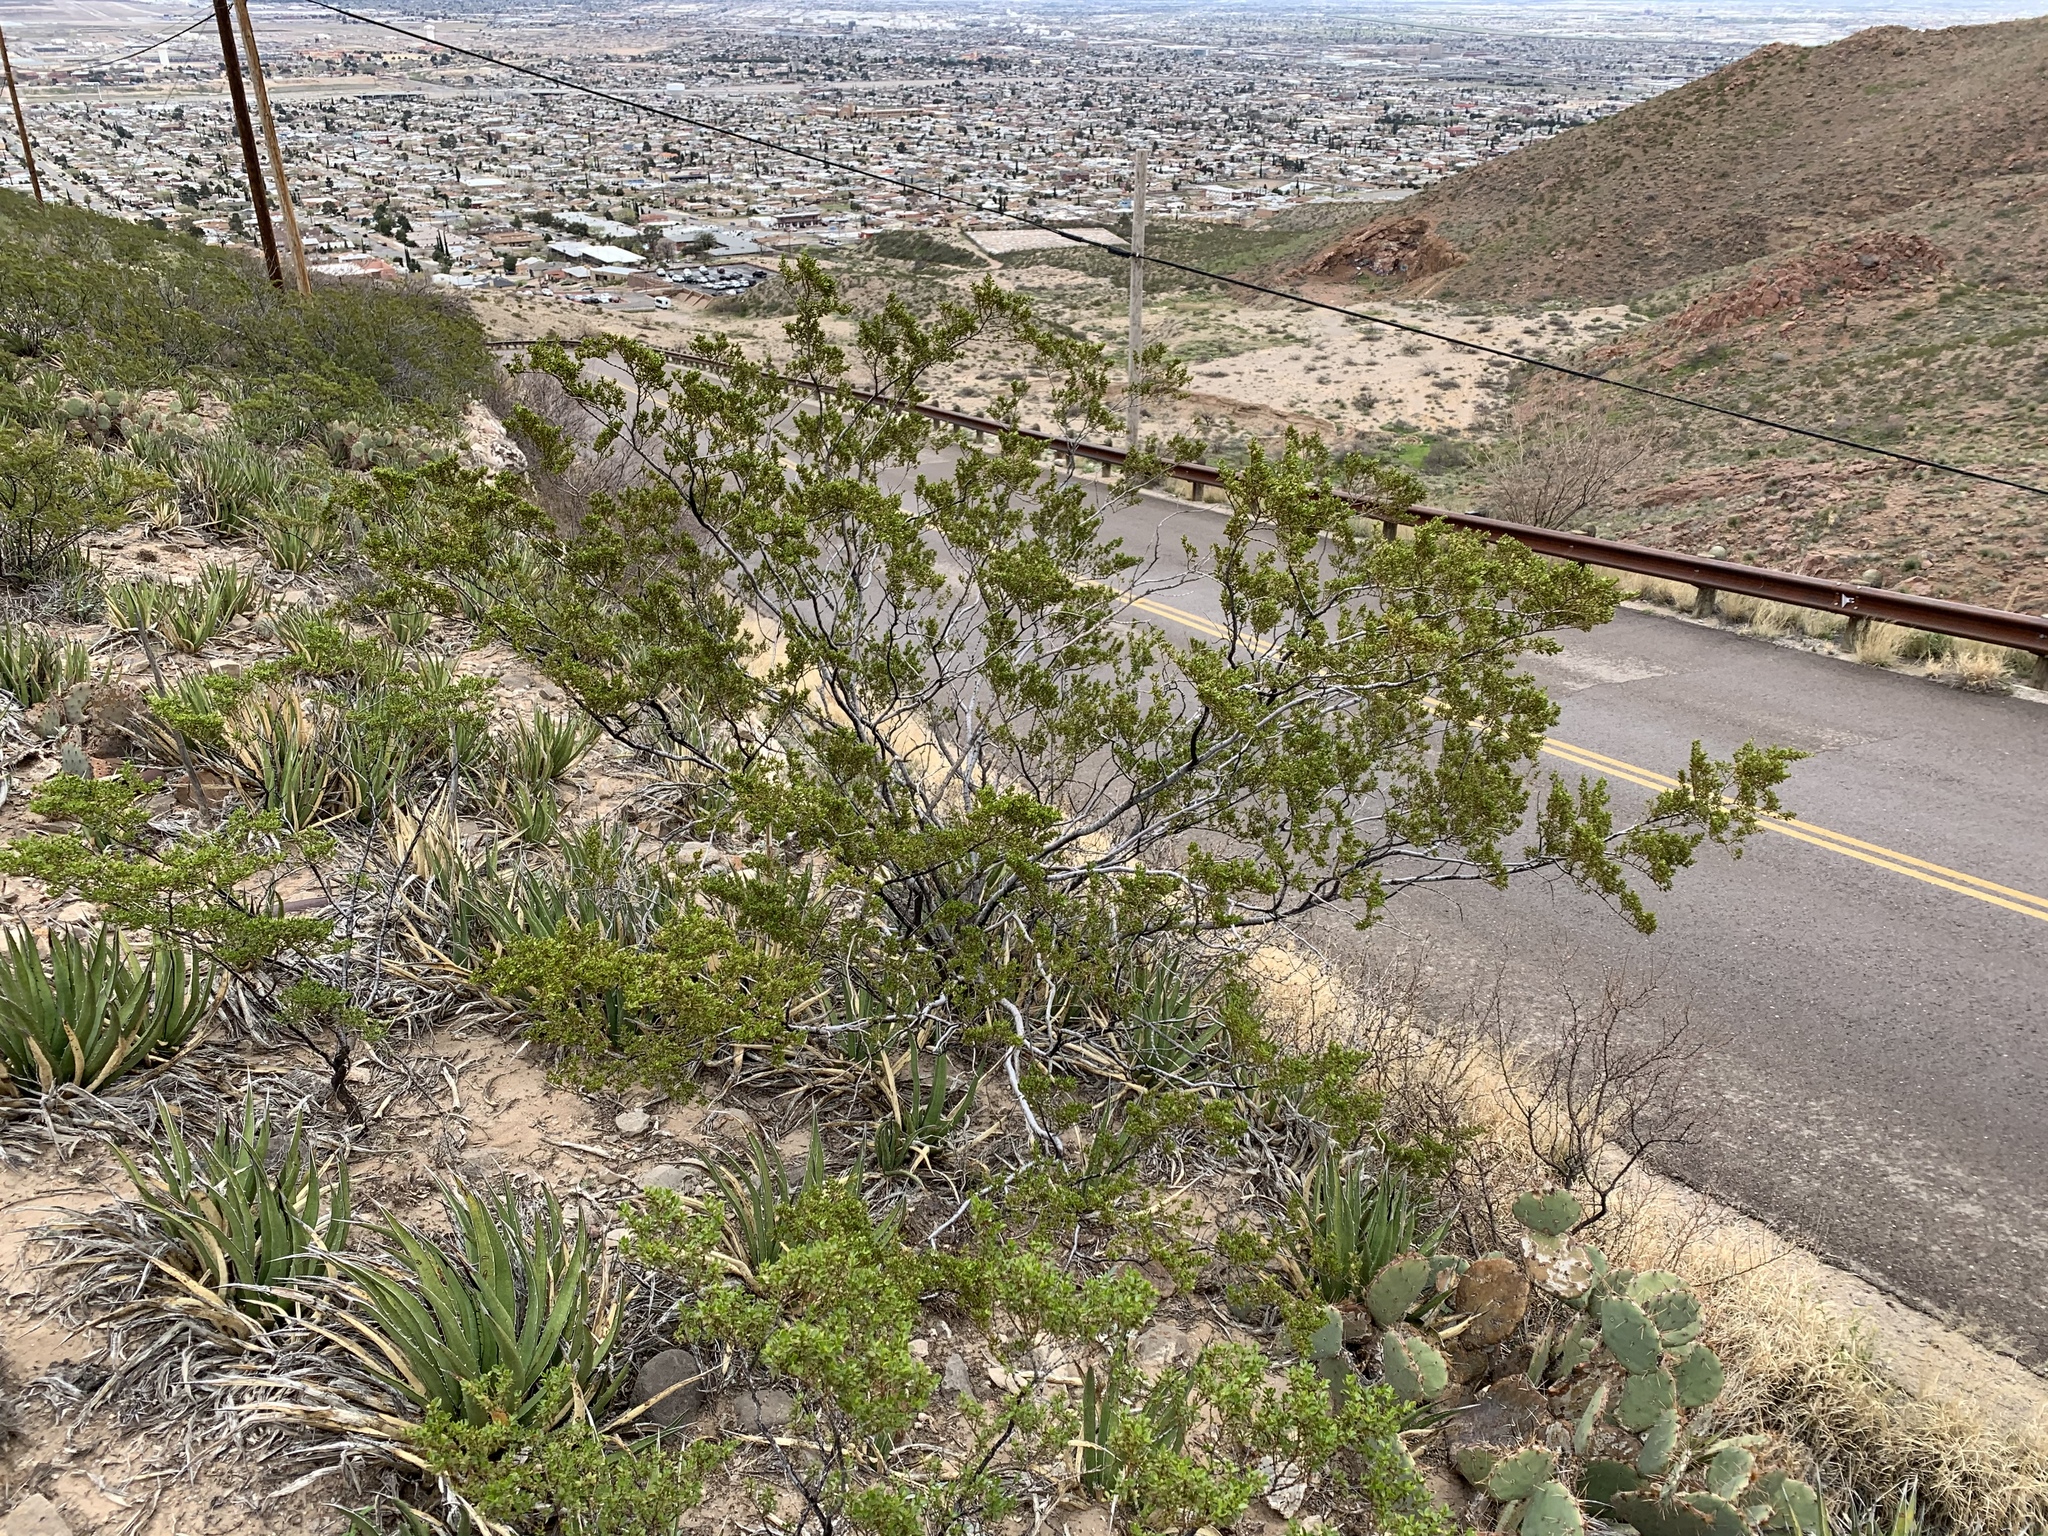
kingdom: Plantae
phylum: Tracheophyta
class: Magnoliopsida
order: Zygophyllales
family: Zygophyllaceae
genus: Larrea
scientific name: Larrea tridentata
